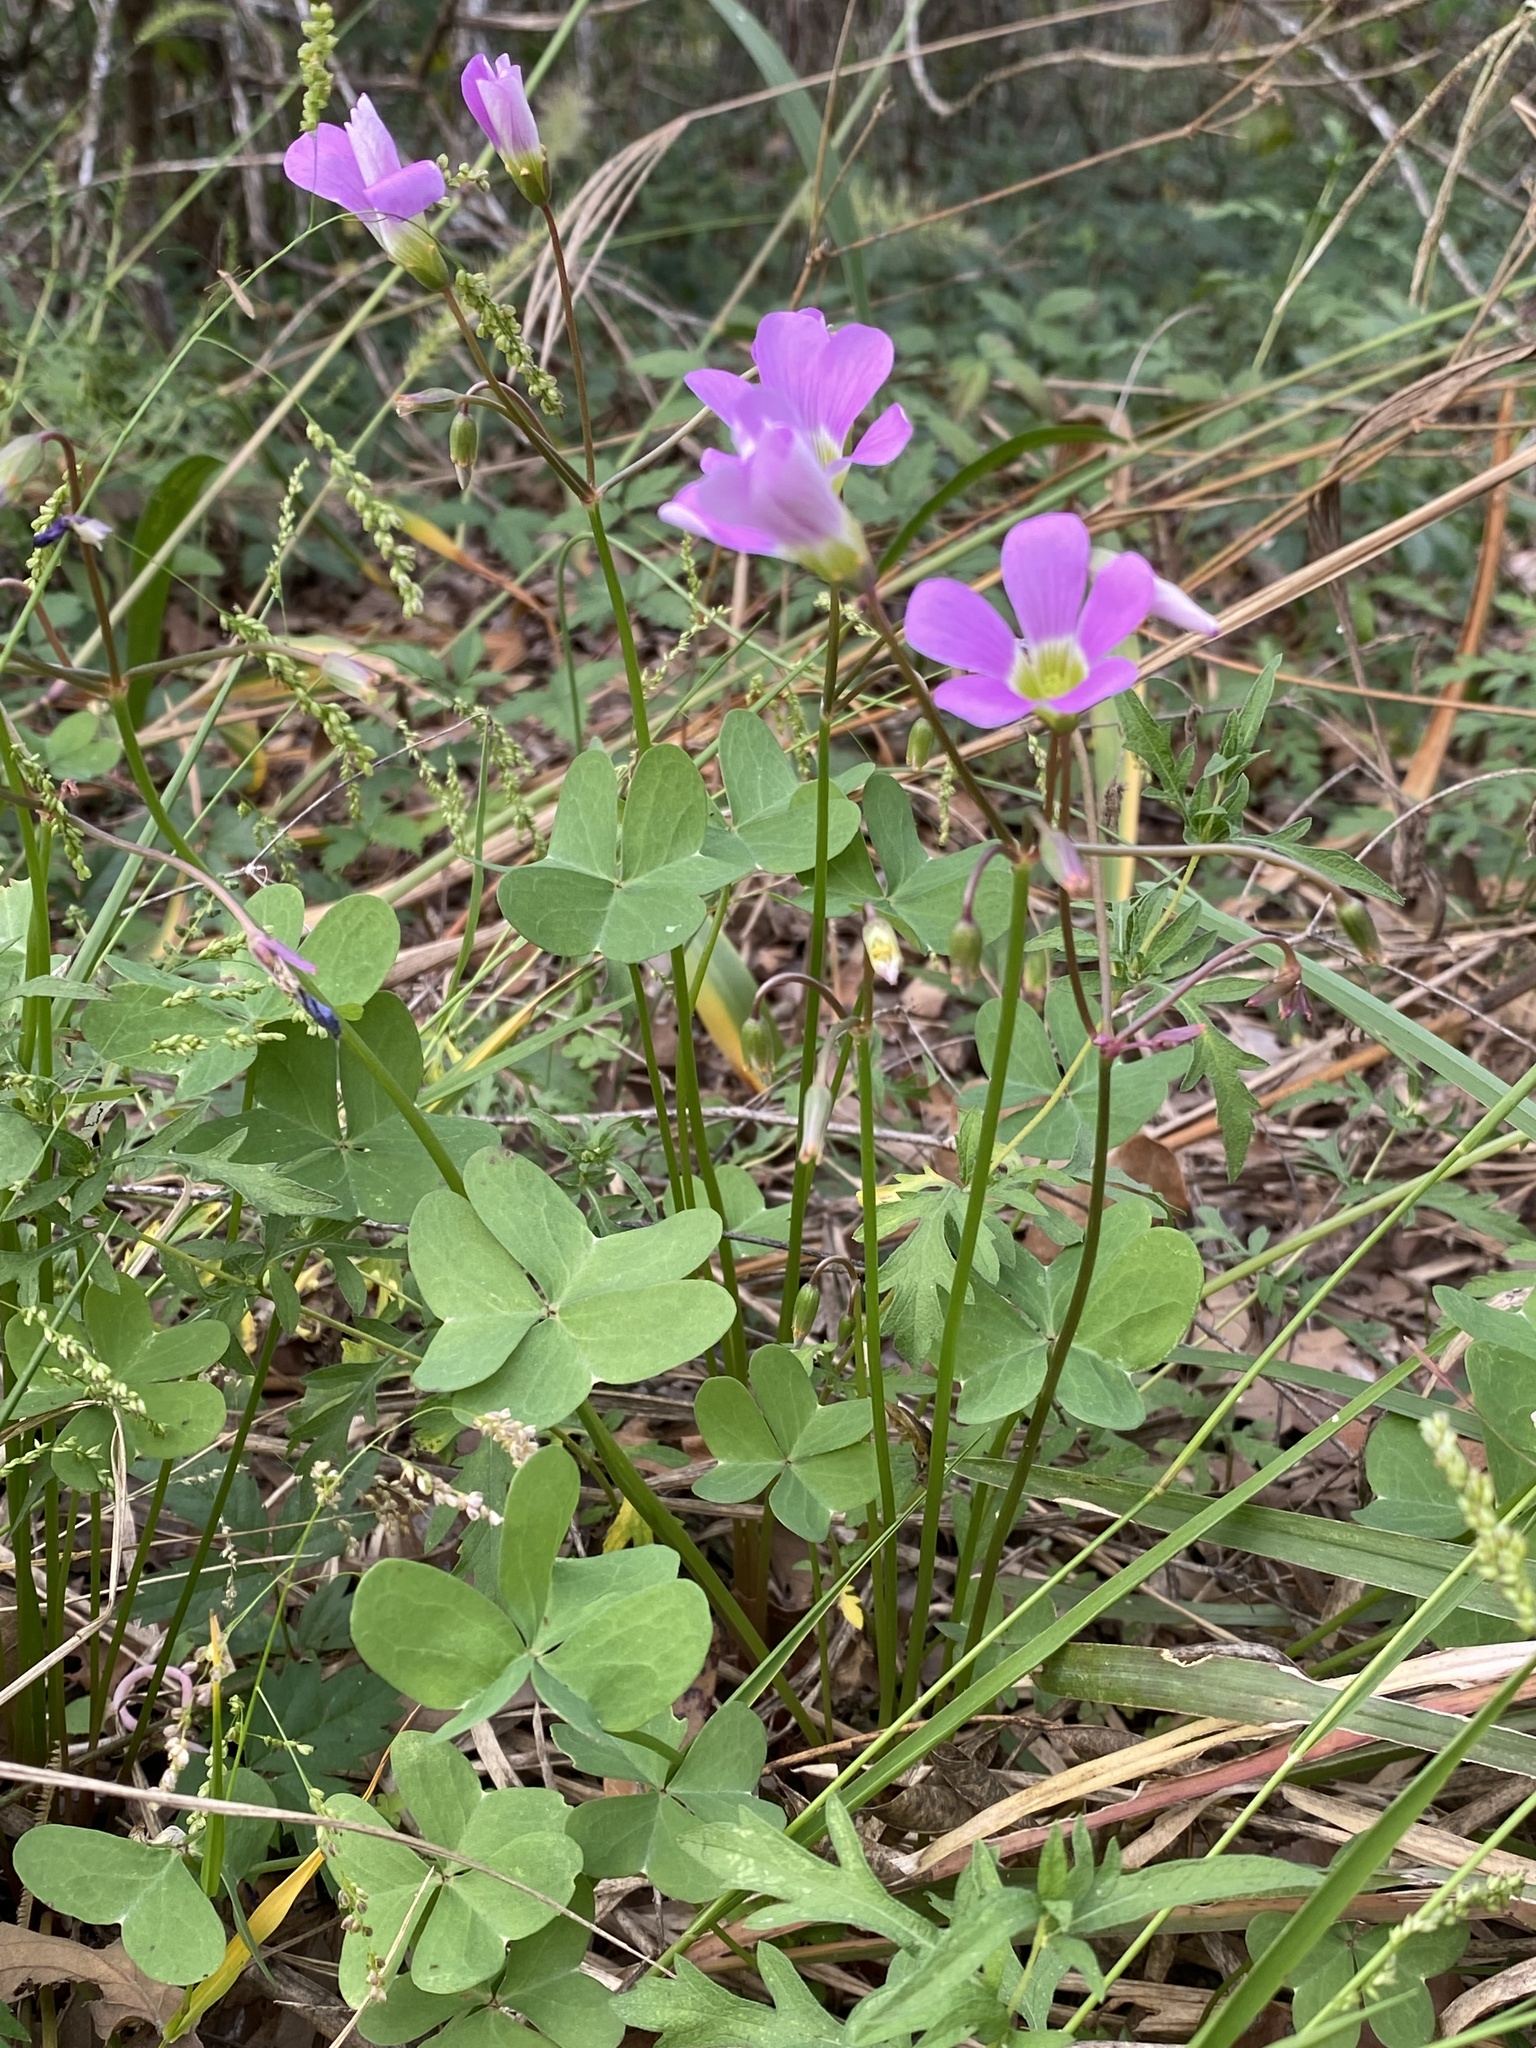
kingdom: Plantae
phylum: Tracheophyta
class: Magnoliopsida
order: Oxalidales
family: Oxalidaceae
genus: Oxalis
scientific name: Oxalis drummondii
